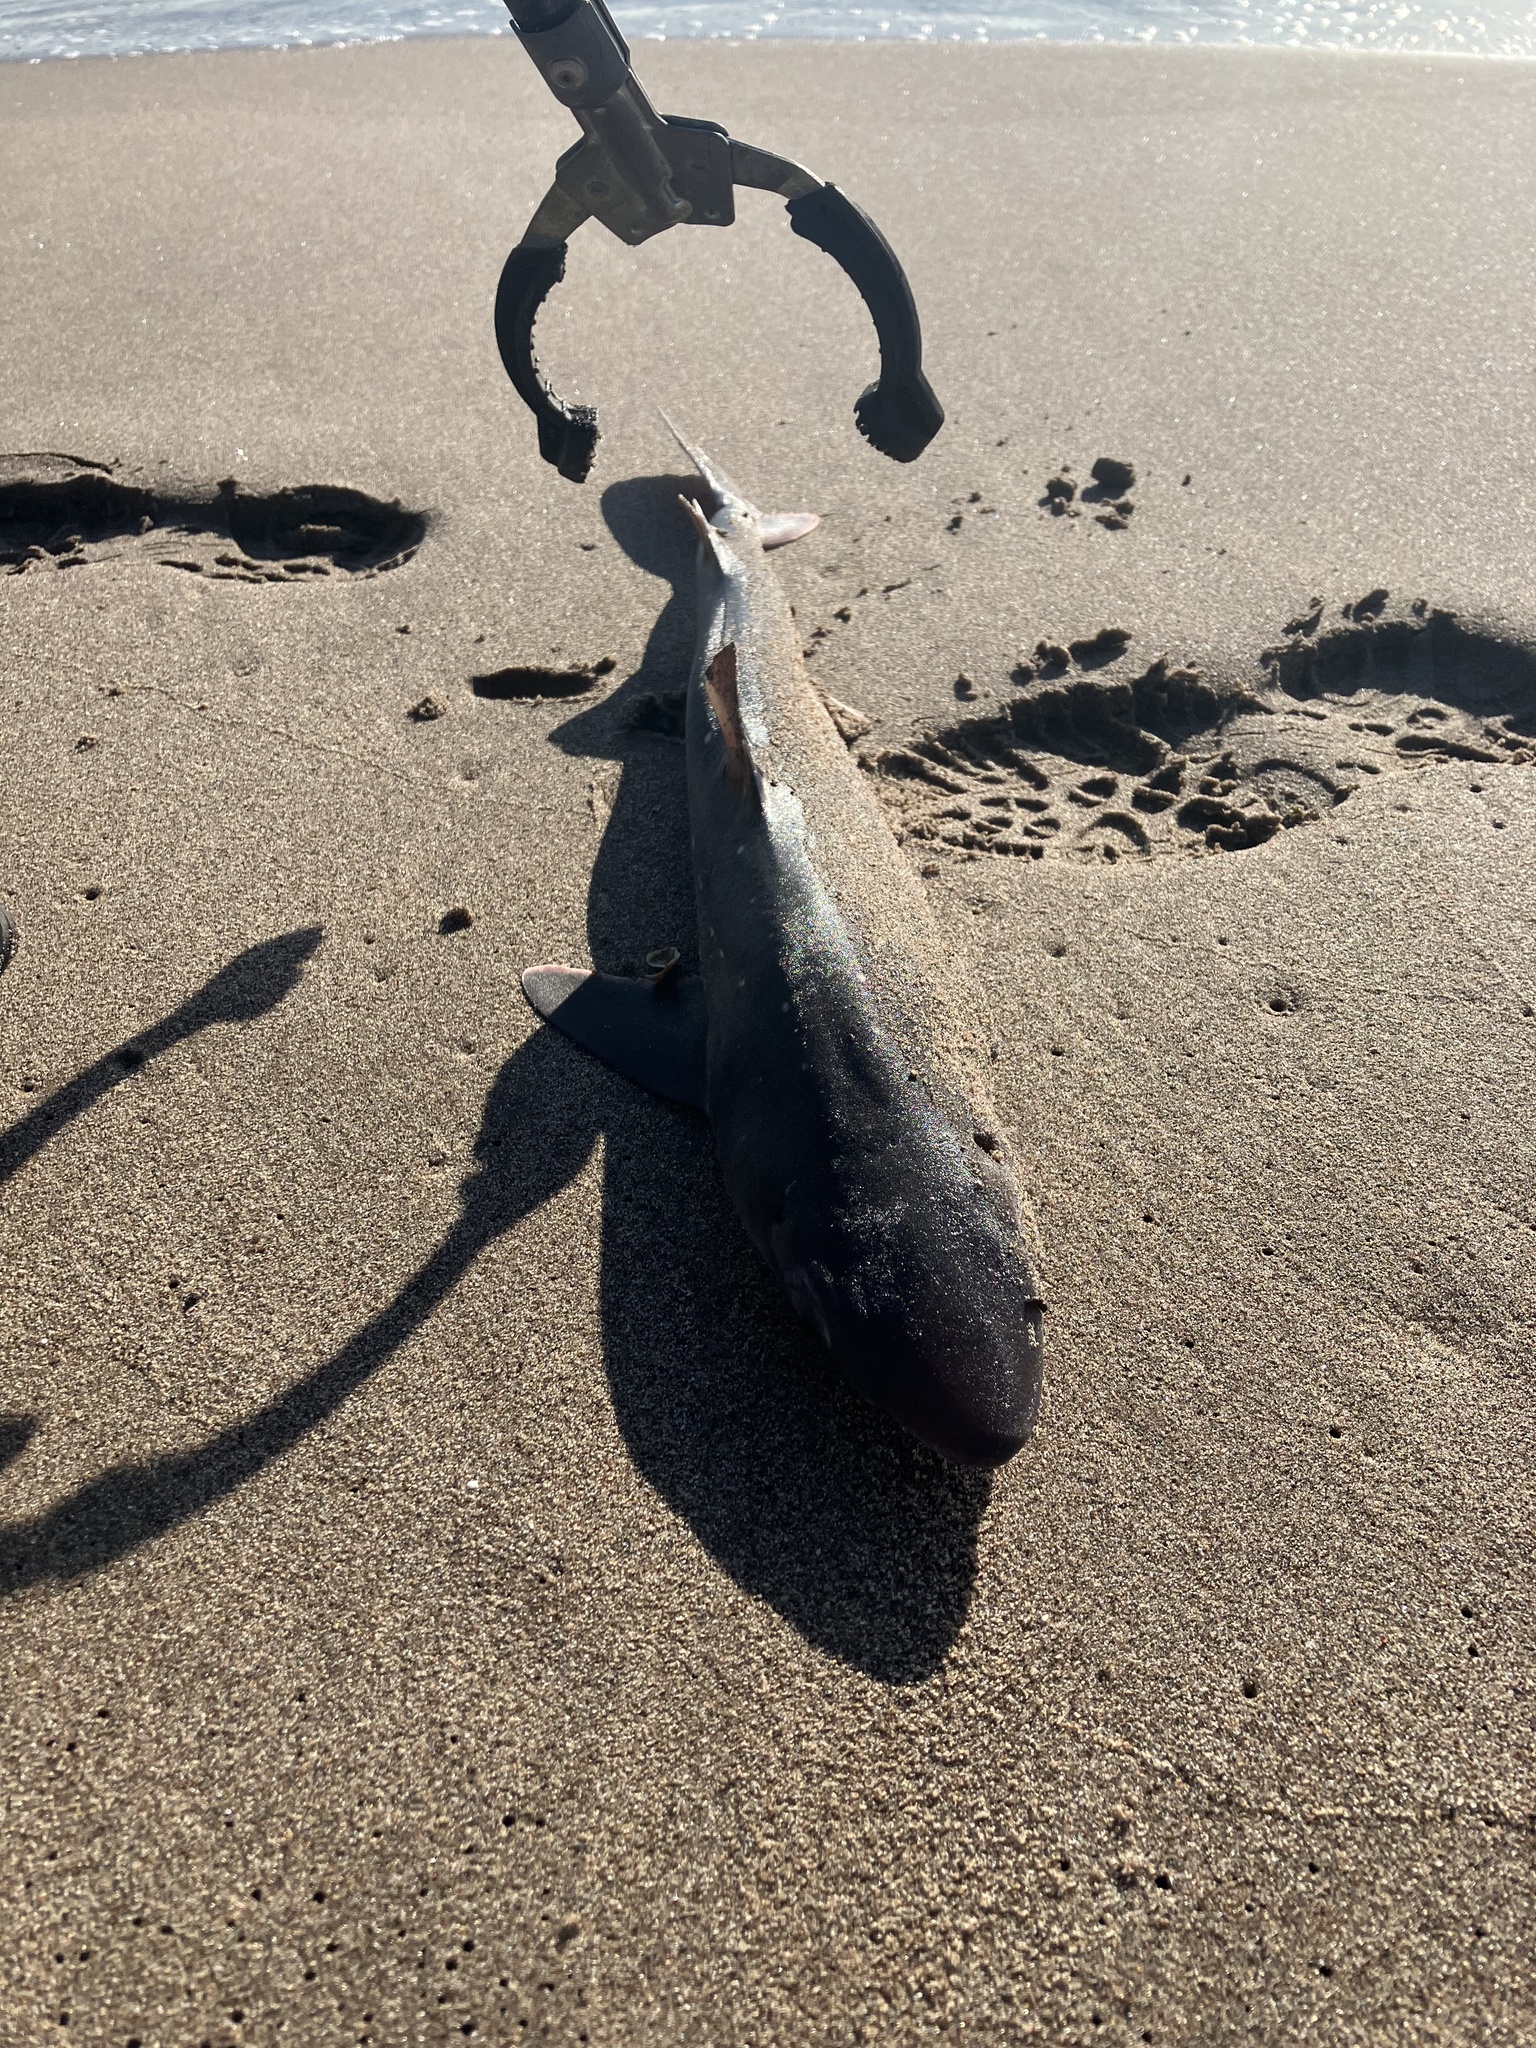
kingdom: Animalia
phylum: Chordata
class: Elasmobranchii
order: Squaliformes
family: Squalidae
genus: Squalus
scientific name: Squalus acanthias
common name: Spurdog
